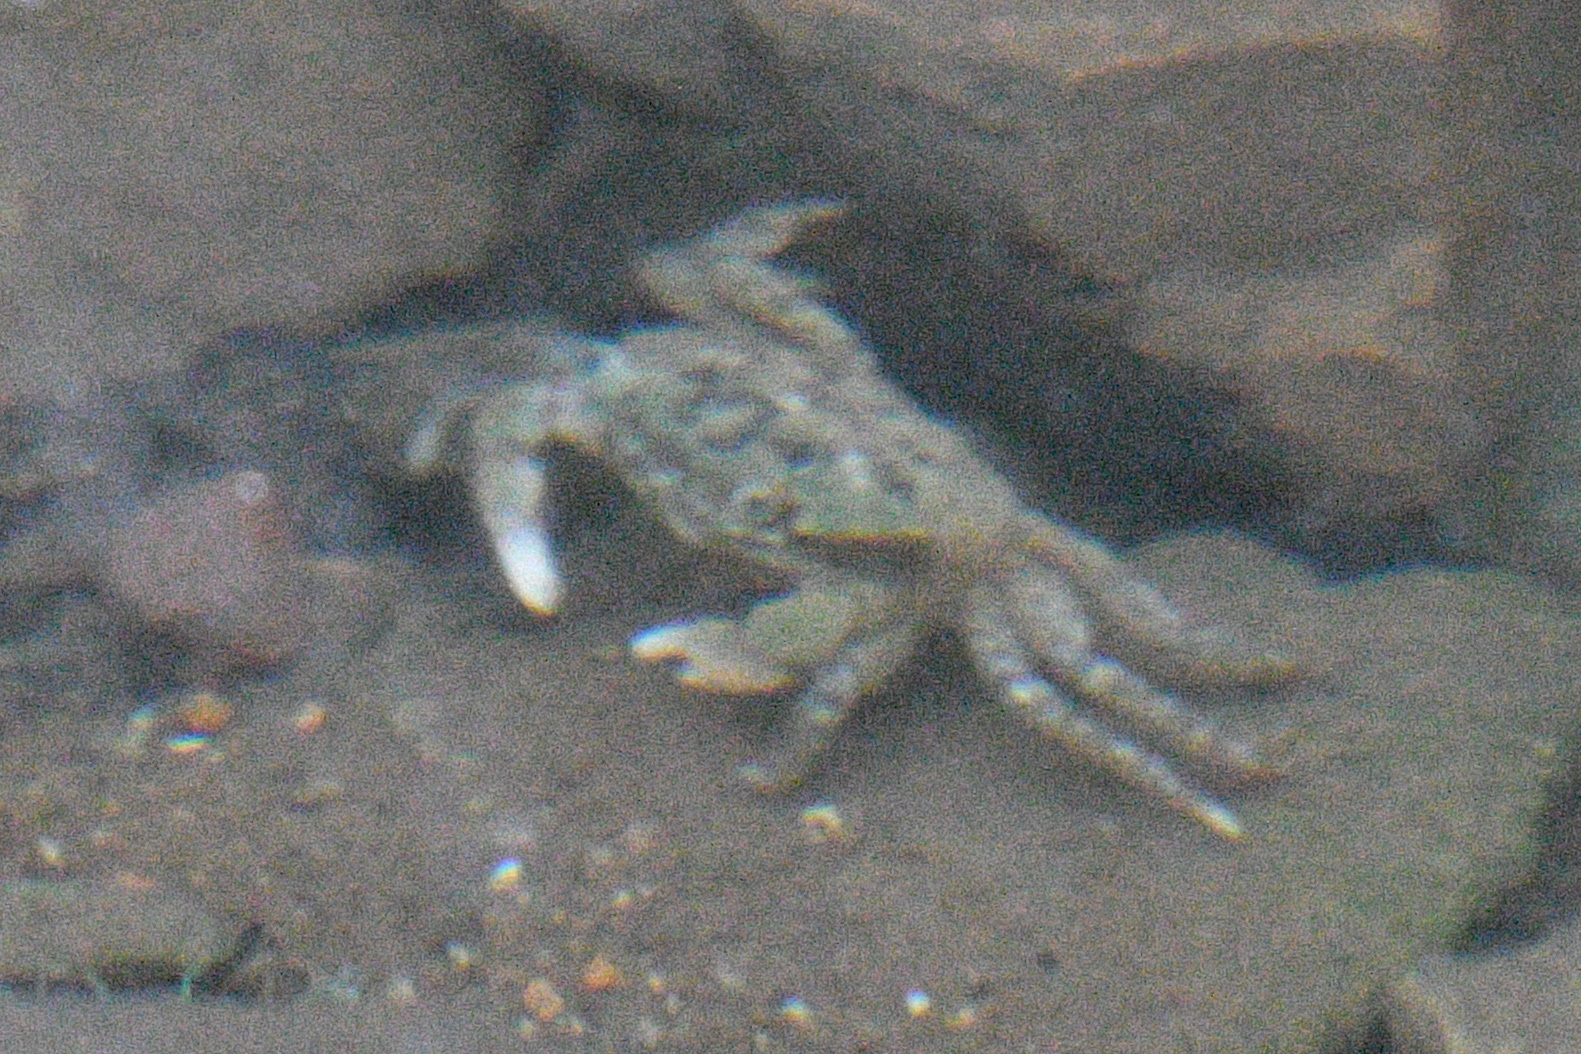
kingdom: Animalia
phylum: Arthropoda
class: Malacostraca
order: Decapoda
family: Varunidae
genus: Hemigrapsus
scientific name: Hemigrapsus oregonensis
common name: Yellow shore crab
